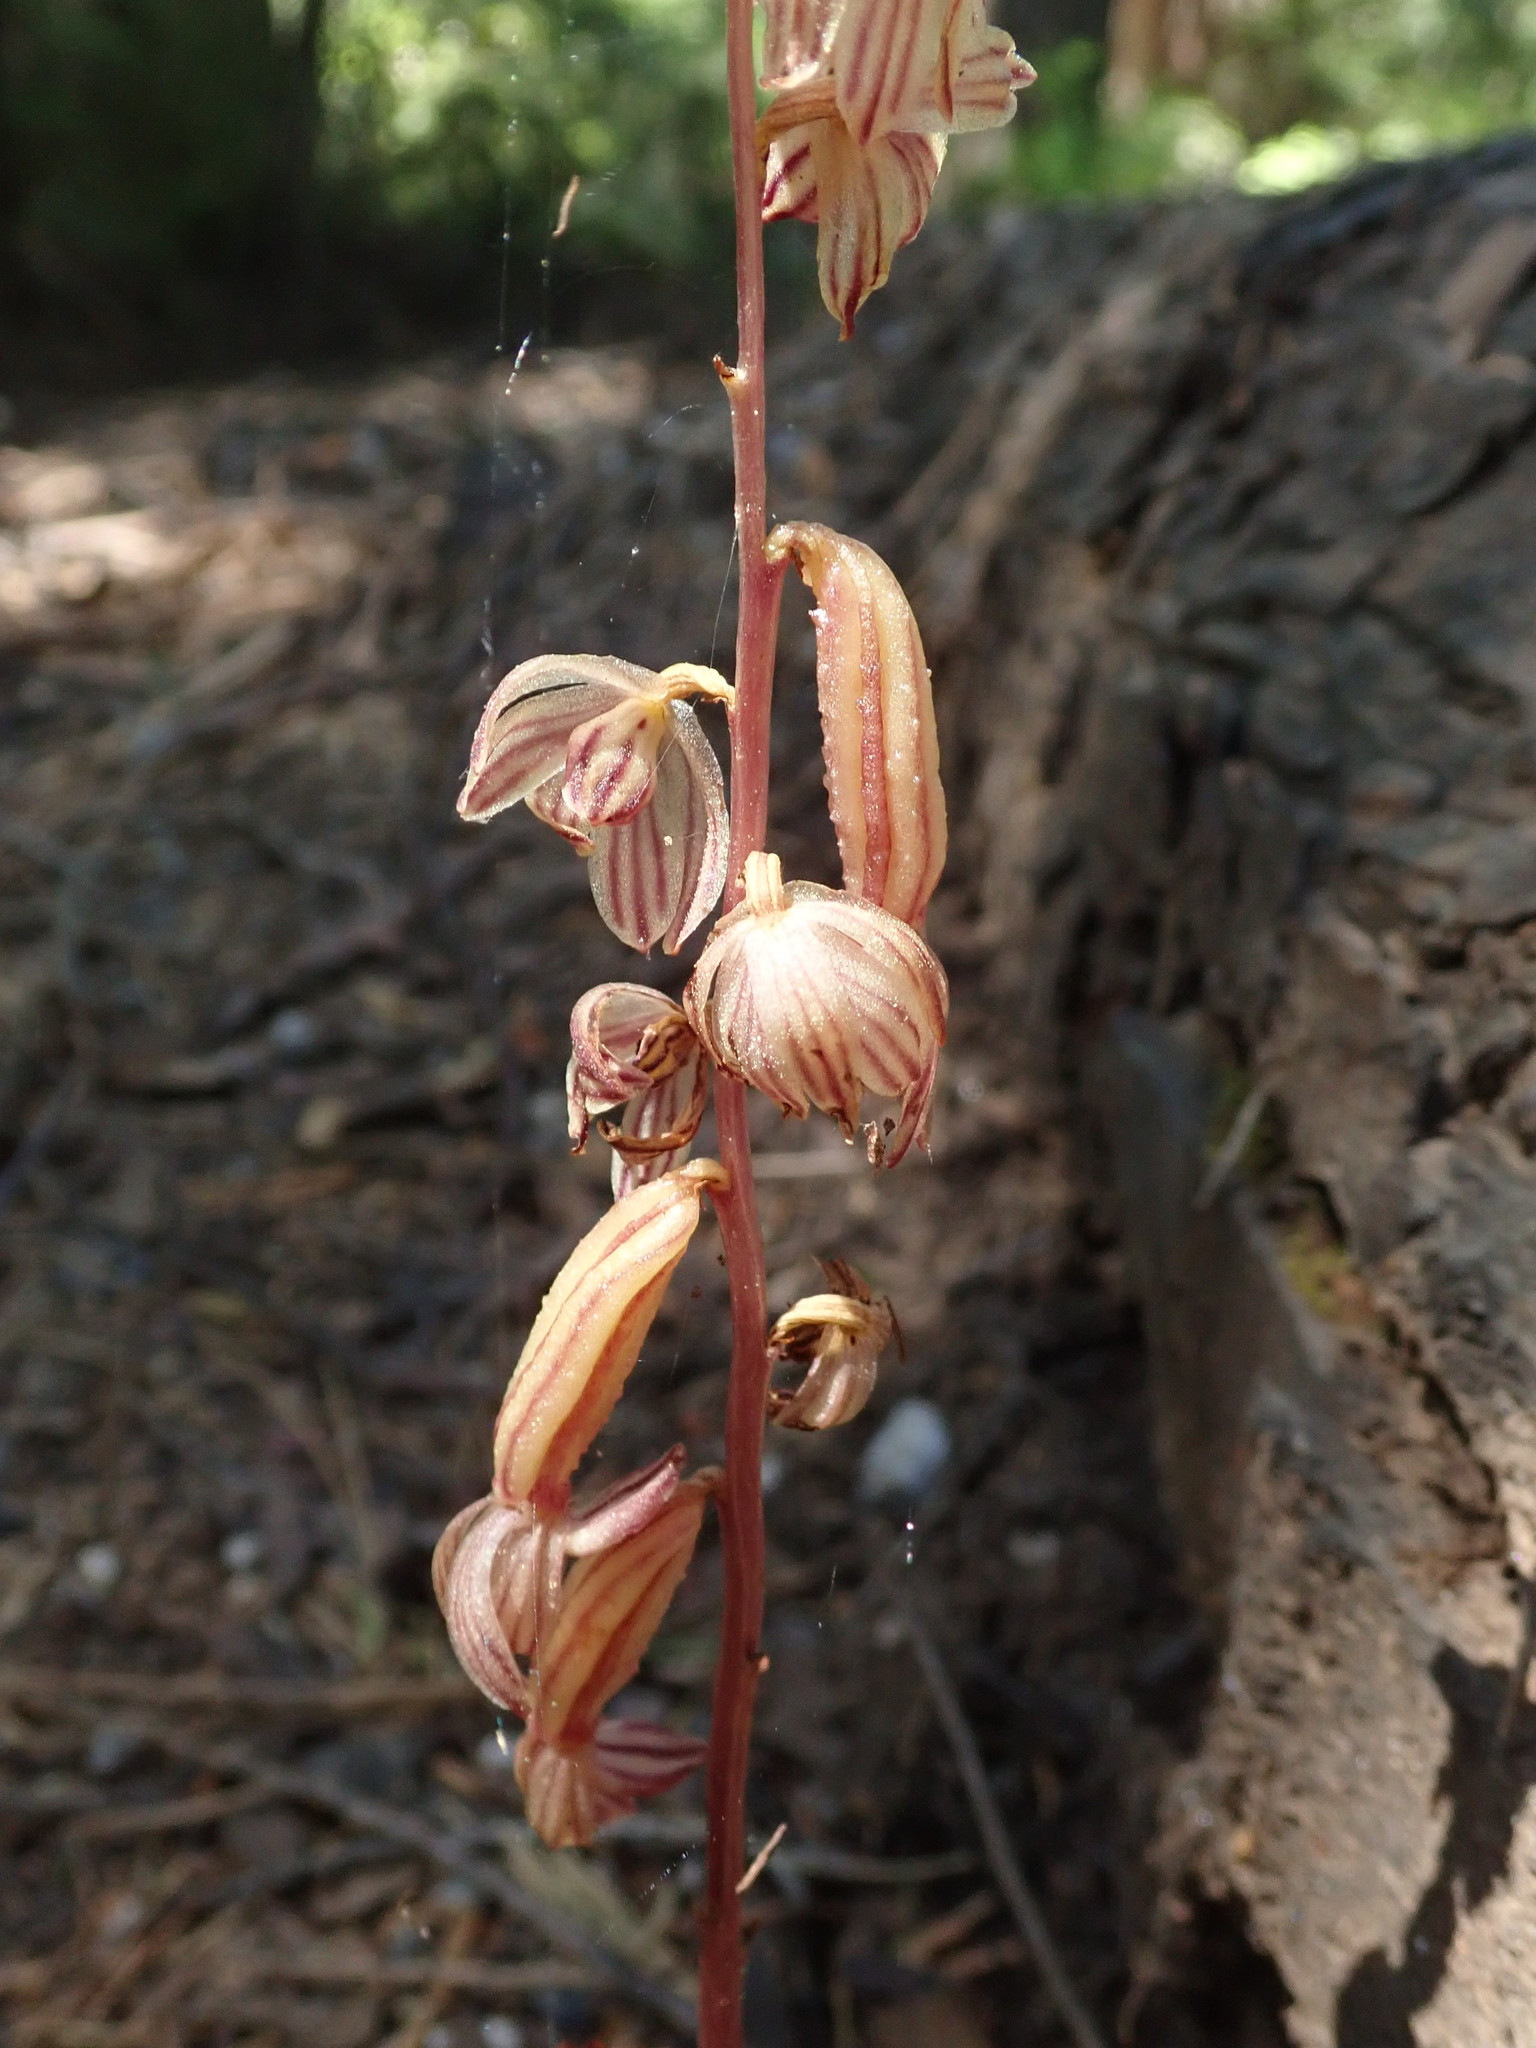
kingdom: Plantae
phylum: Tracheophyta
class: Liliopsida
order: Asparagales
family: Orchidaceae
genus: Corallorhiza
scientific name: Corallorhiza striata
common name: Hooded coralroot
